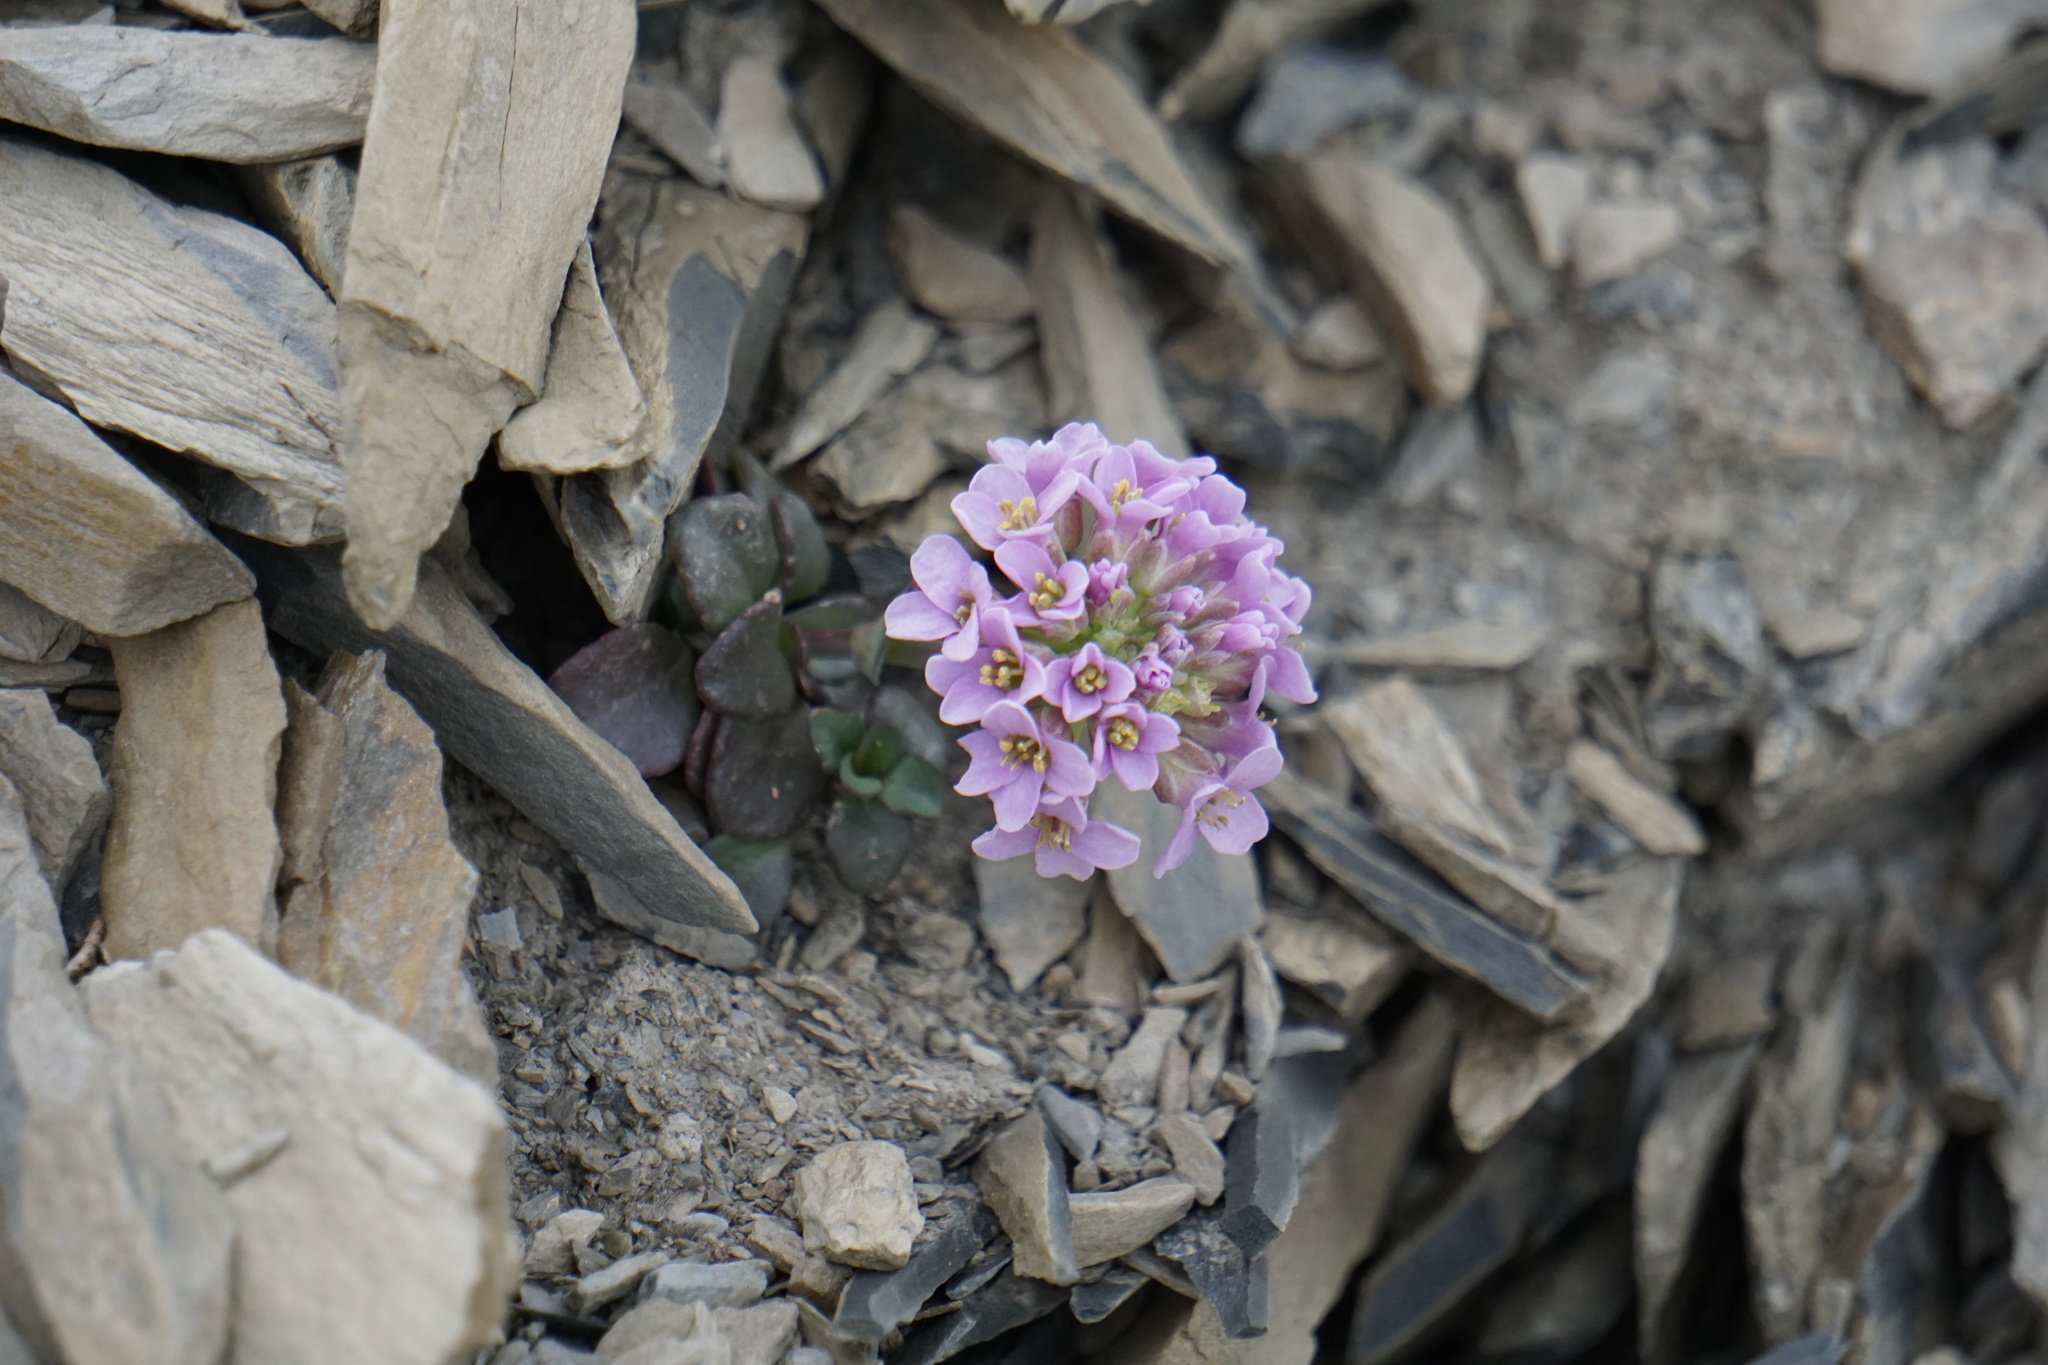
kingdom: Plantae
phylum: Tracheophyta
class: Magnoliopsida
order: Brassicales
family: Brassicaceae
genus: Noccaea
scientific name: Noccaea rotundifolia
